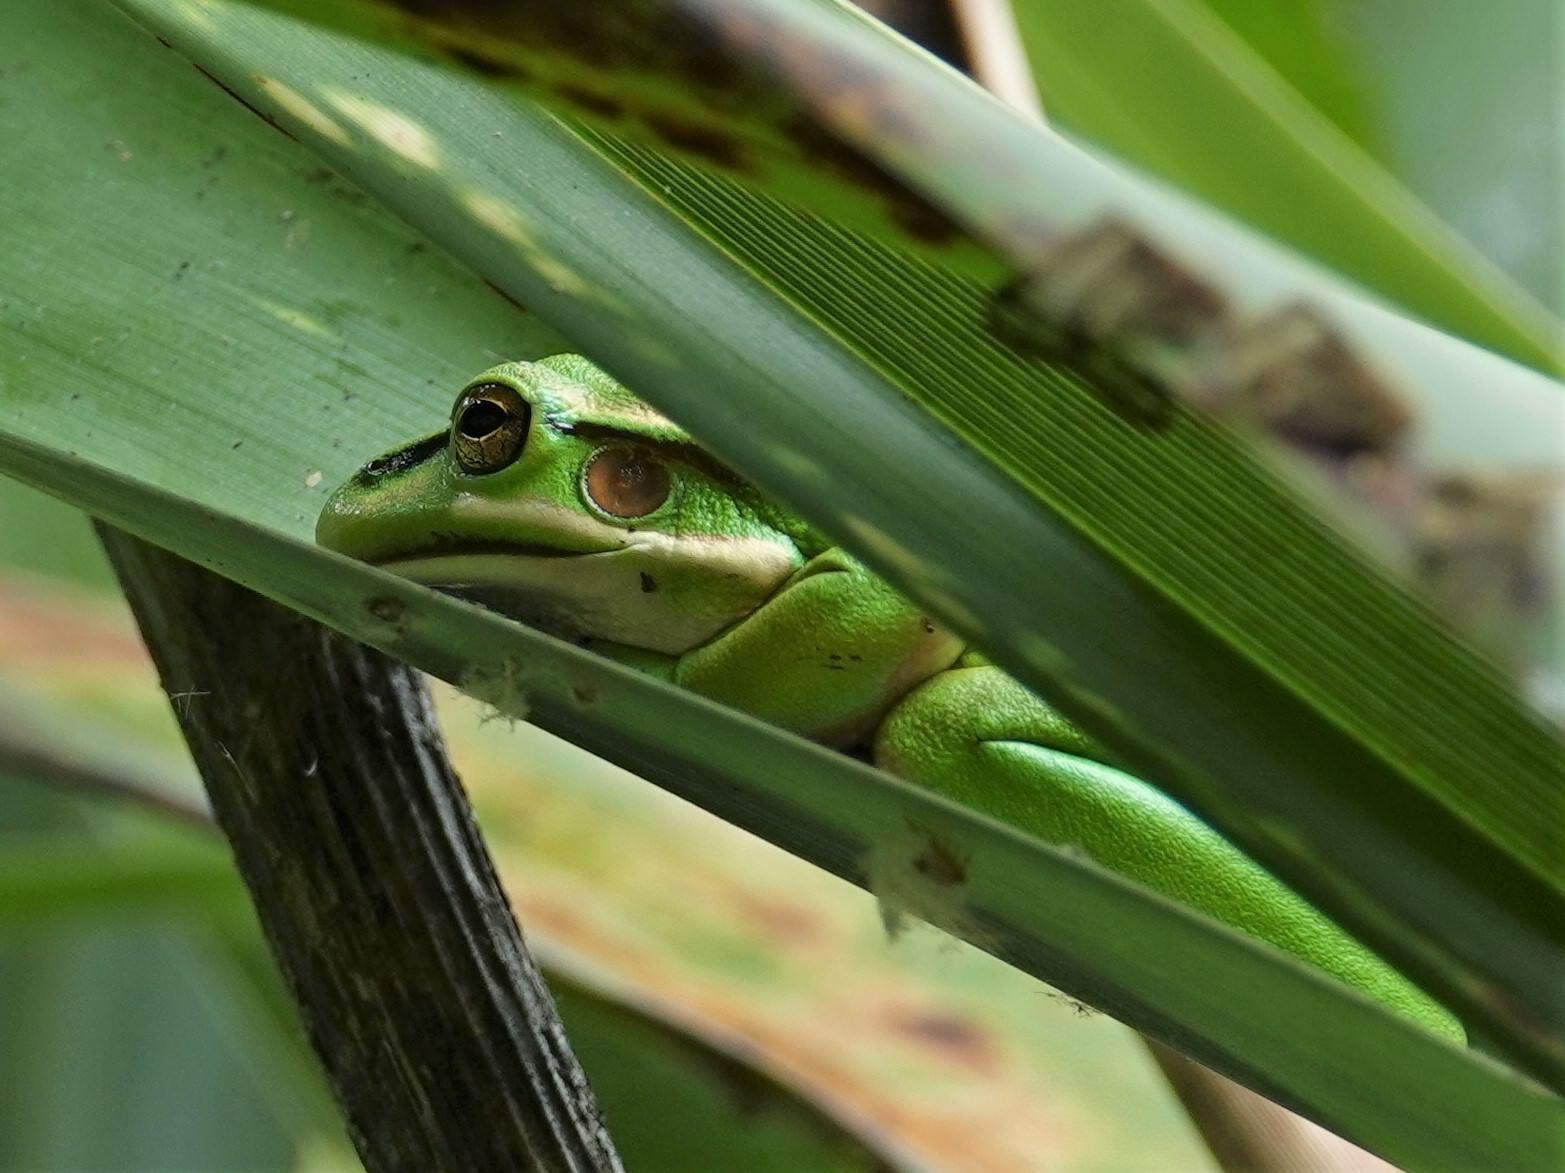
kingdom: Animalia
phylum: Chordata
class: Amphibia
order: Anura
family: Pelodryadidae
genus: Ranoidea
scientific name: Ranoidea aurea
